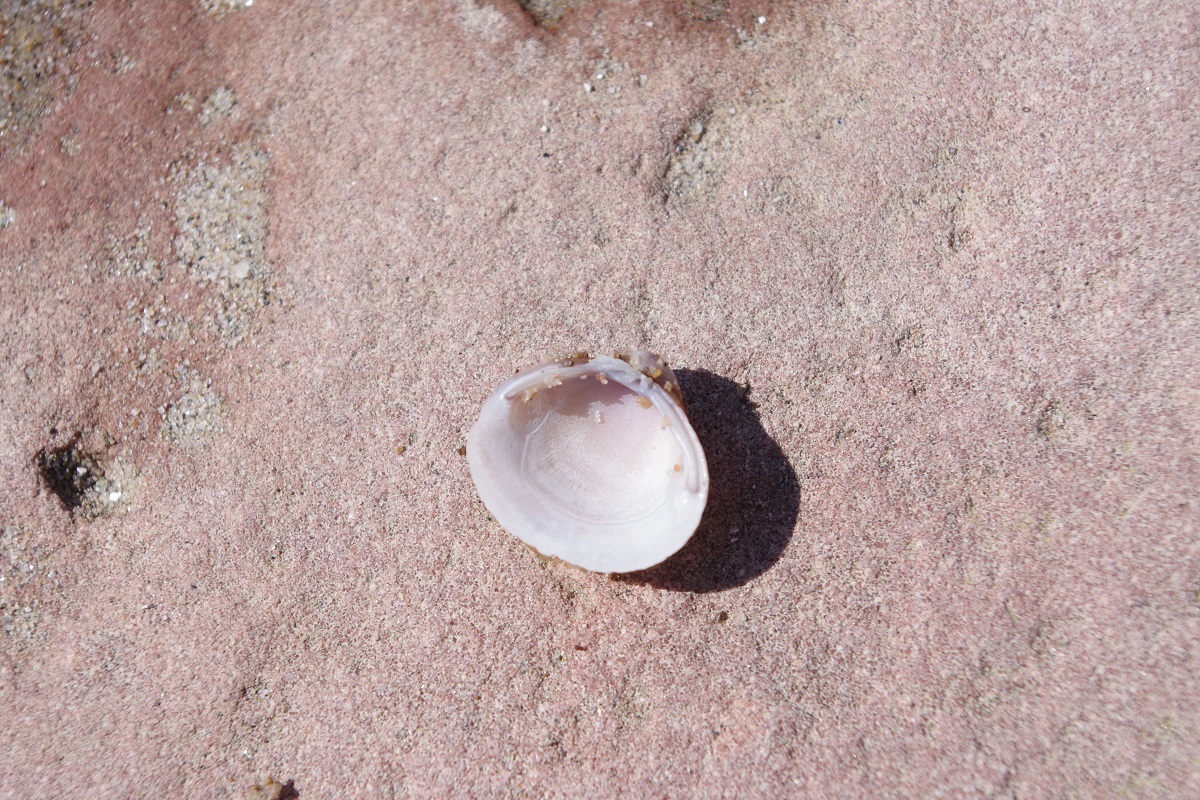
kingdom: Animalia
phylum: Mollusca
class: Bivalvia
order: Venerida
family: Cyrenidae
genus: Corbicula
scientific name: Corbicula fluminea
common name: Asian clam
